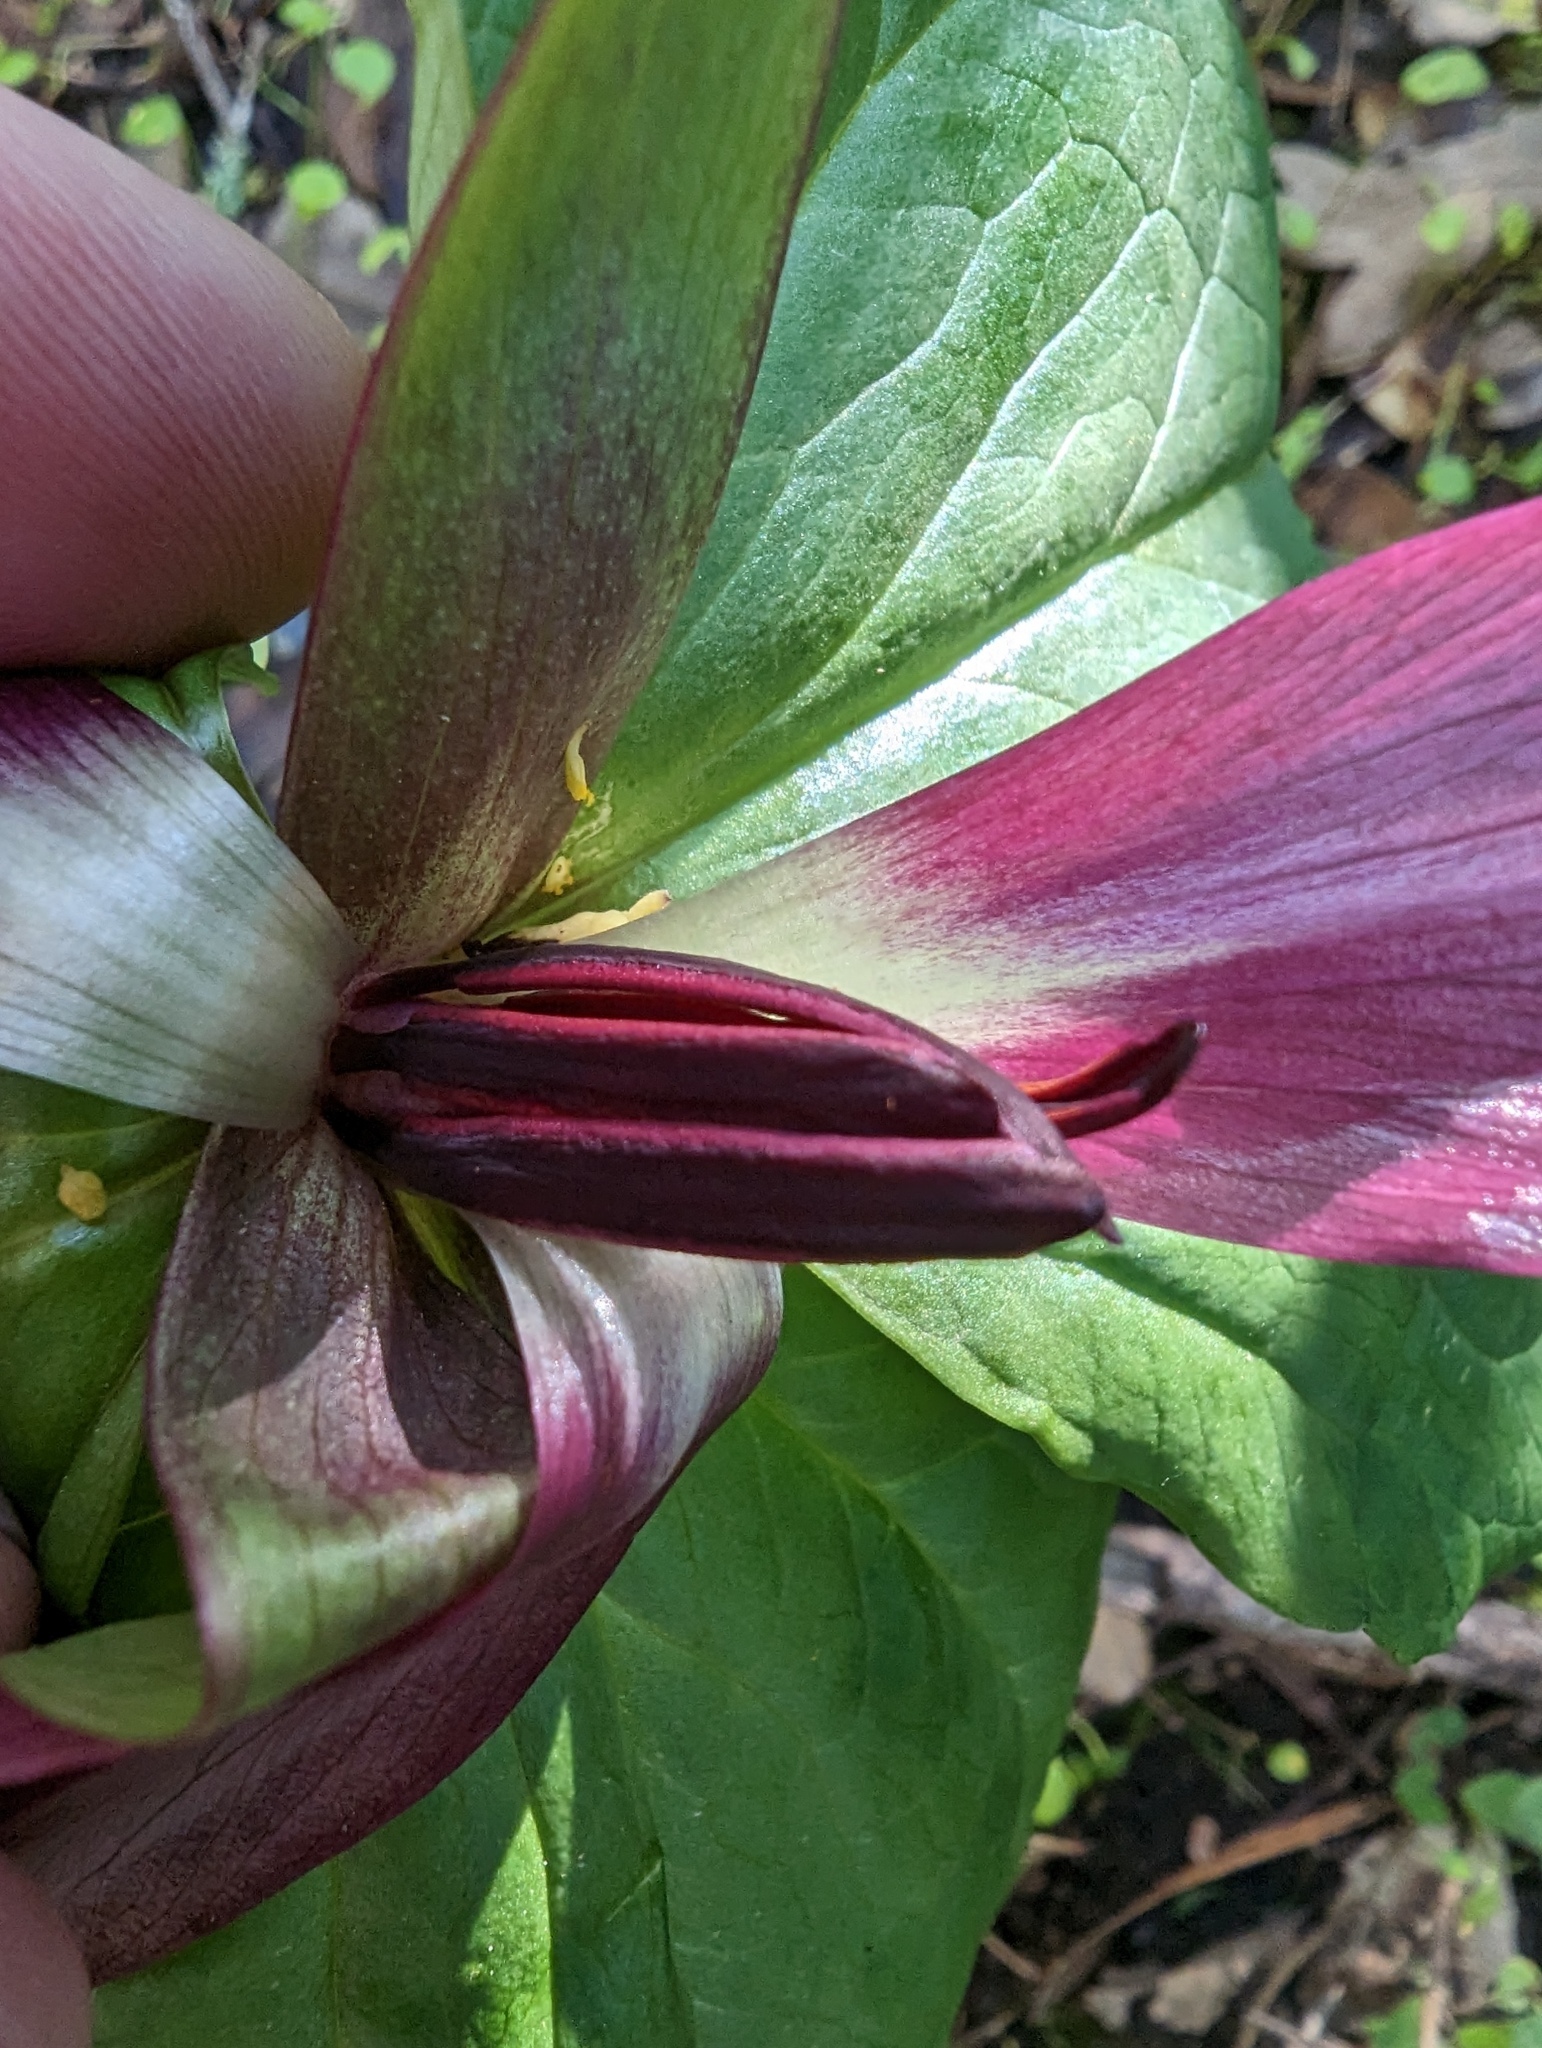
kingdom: Plantae
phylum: Tracheophyta
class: Liliopsida
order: Liliales
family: Melanthiaceae
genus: Trillium
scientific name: Trillium chloropetalum
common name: Giant trillium
